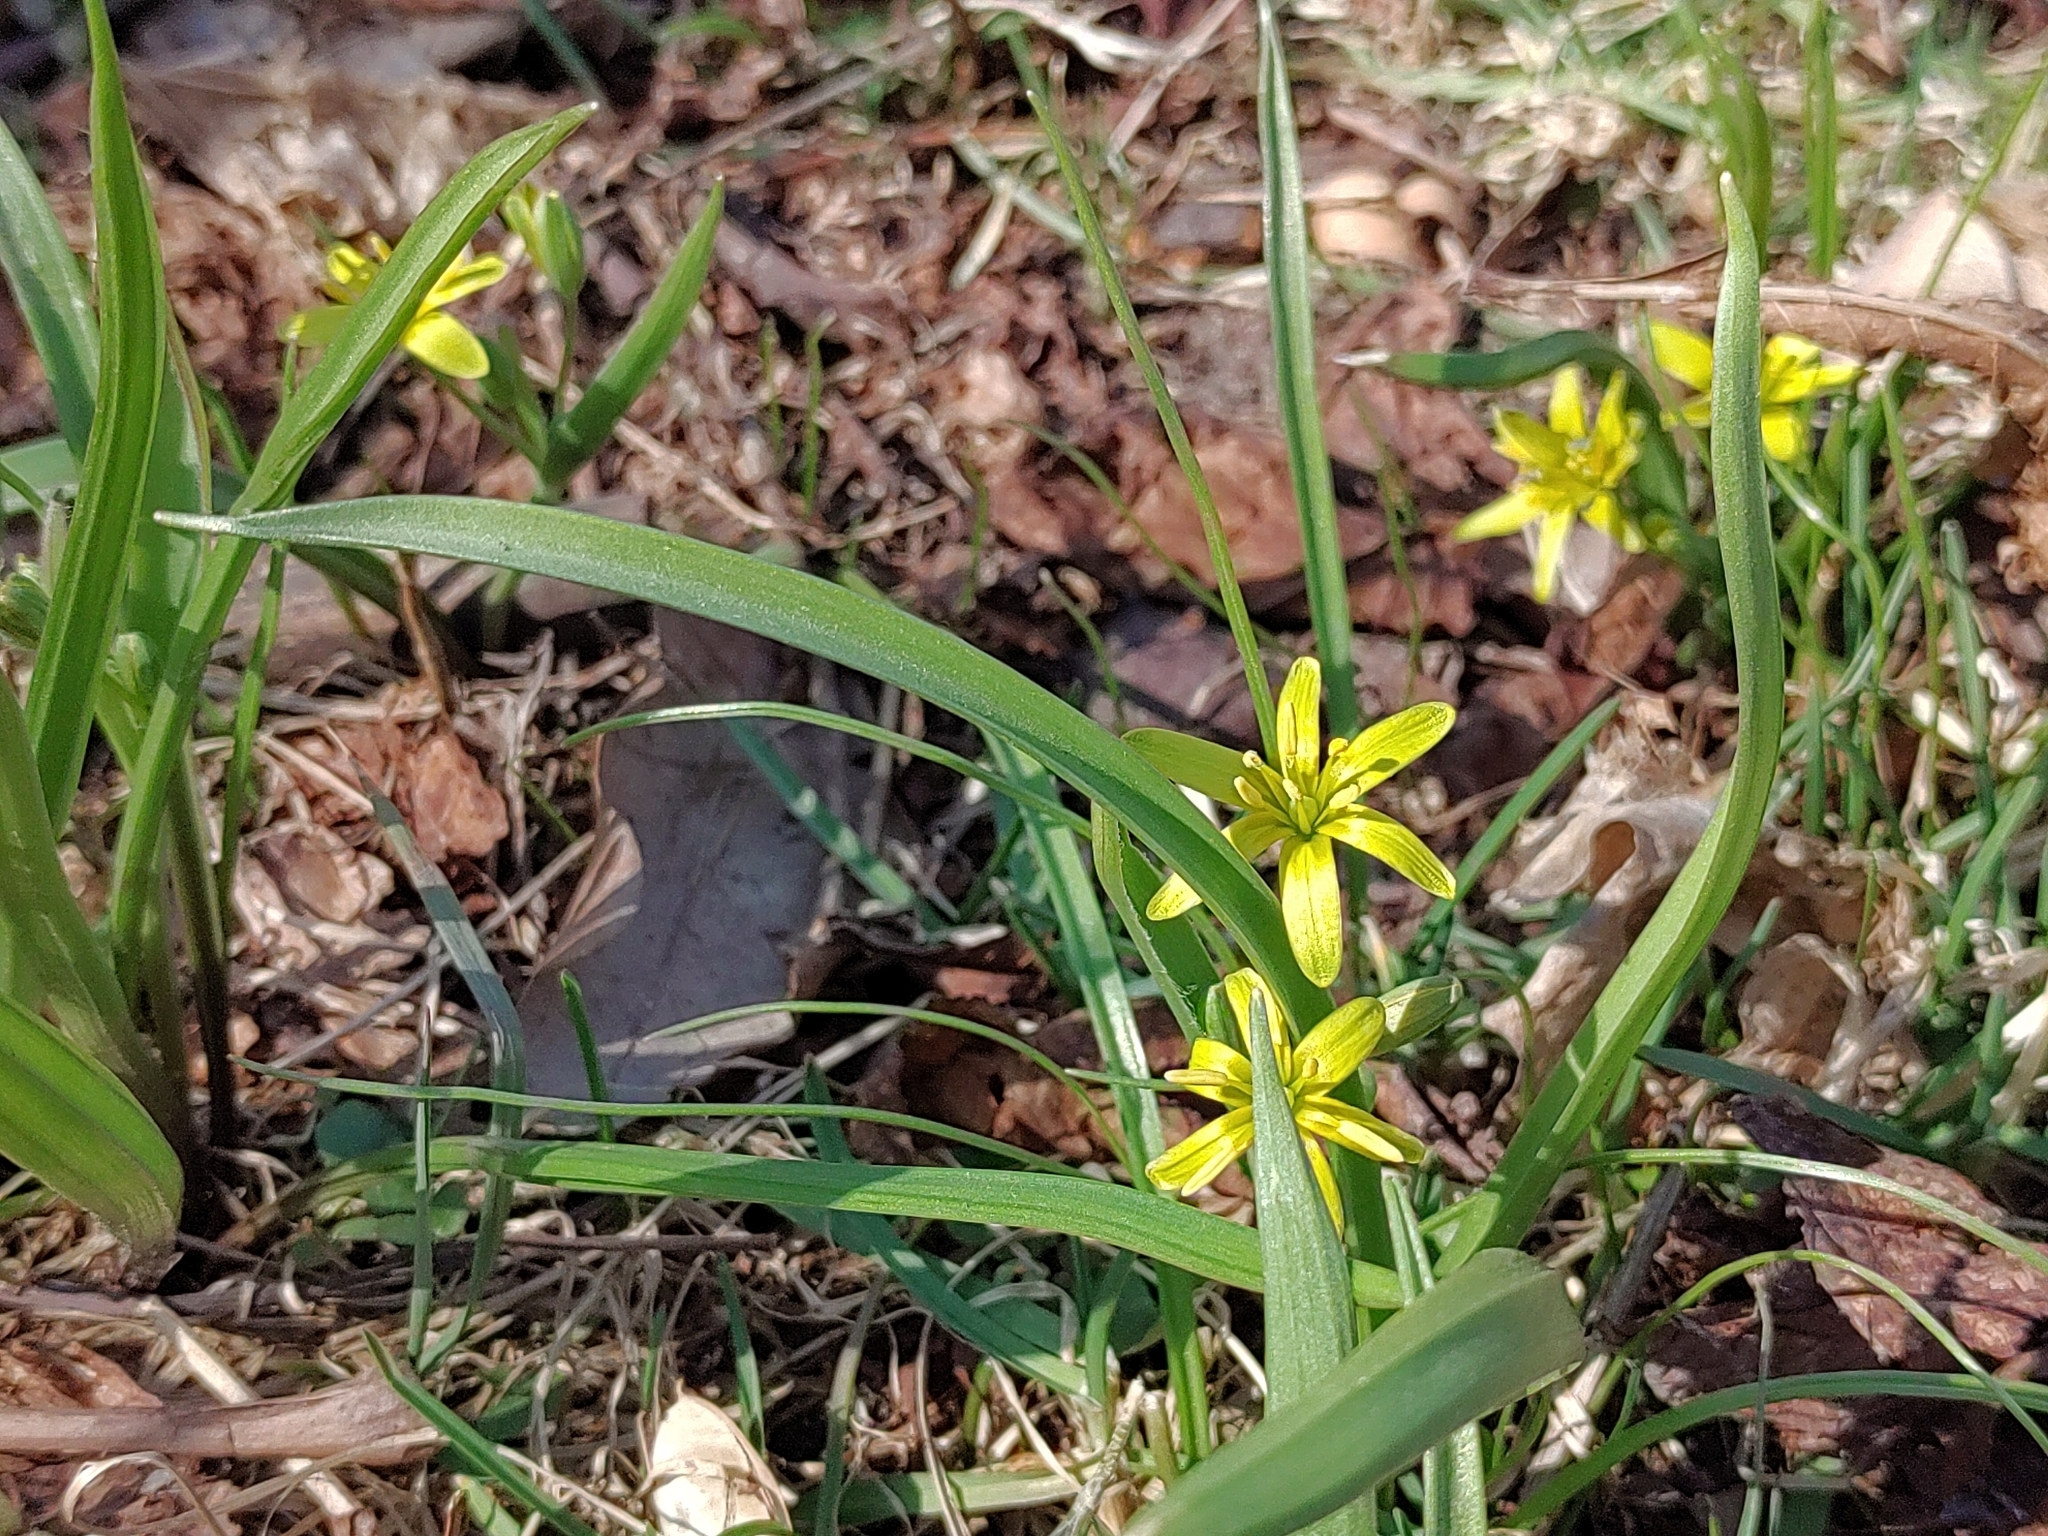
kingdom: Plantae
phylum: Tracheophyta
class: Liliopsida
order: Liliales
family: Liliaceae
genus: Gagea
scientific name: Gagea lutea
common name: Yellow star-of-bethlehem
